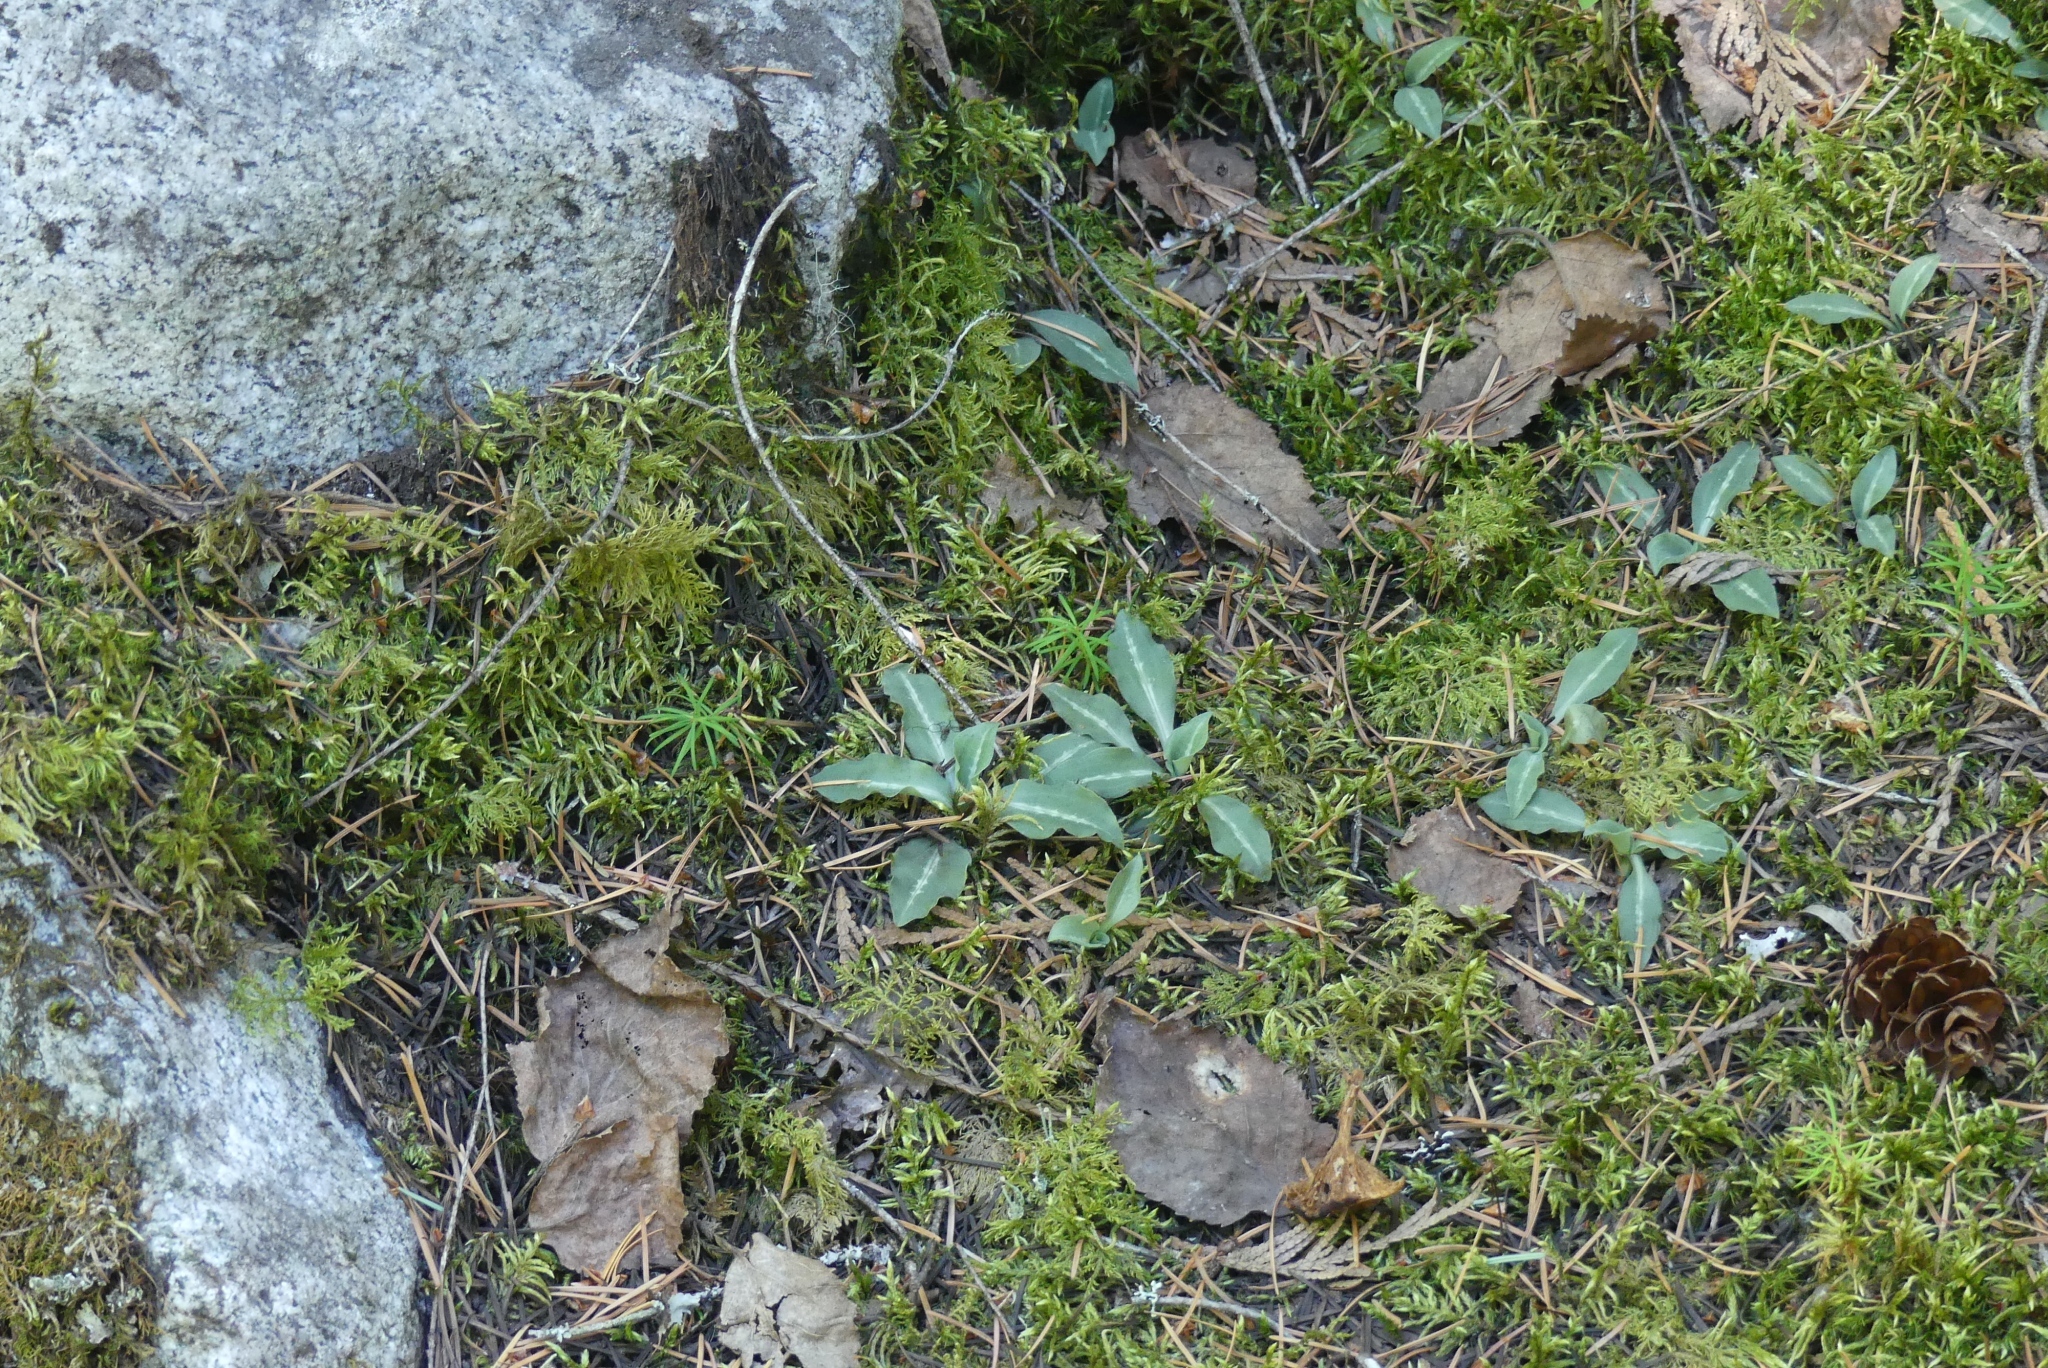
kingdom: Plantae
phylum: Tracheophyta
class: Liliopsida
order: Asparagales
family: Orchidaceae
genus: Goodyera
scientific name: Goodyera oblongifolia
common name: Giant rattlesnake-plantain
